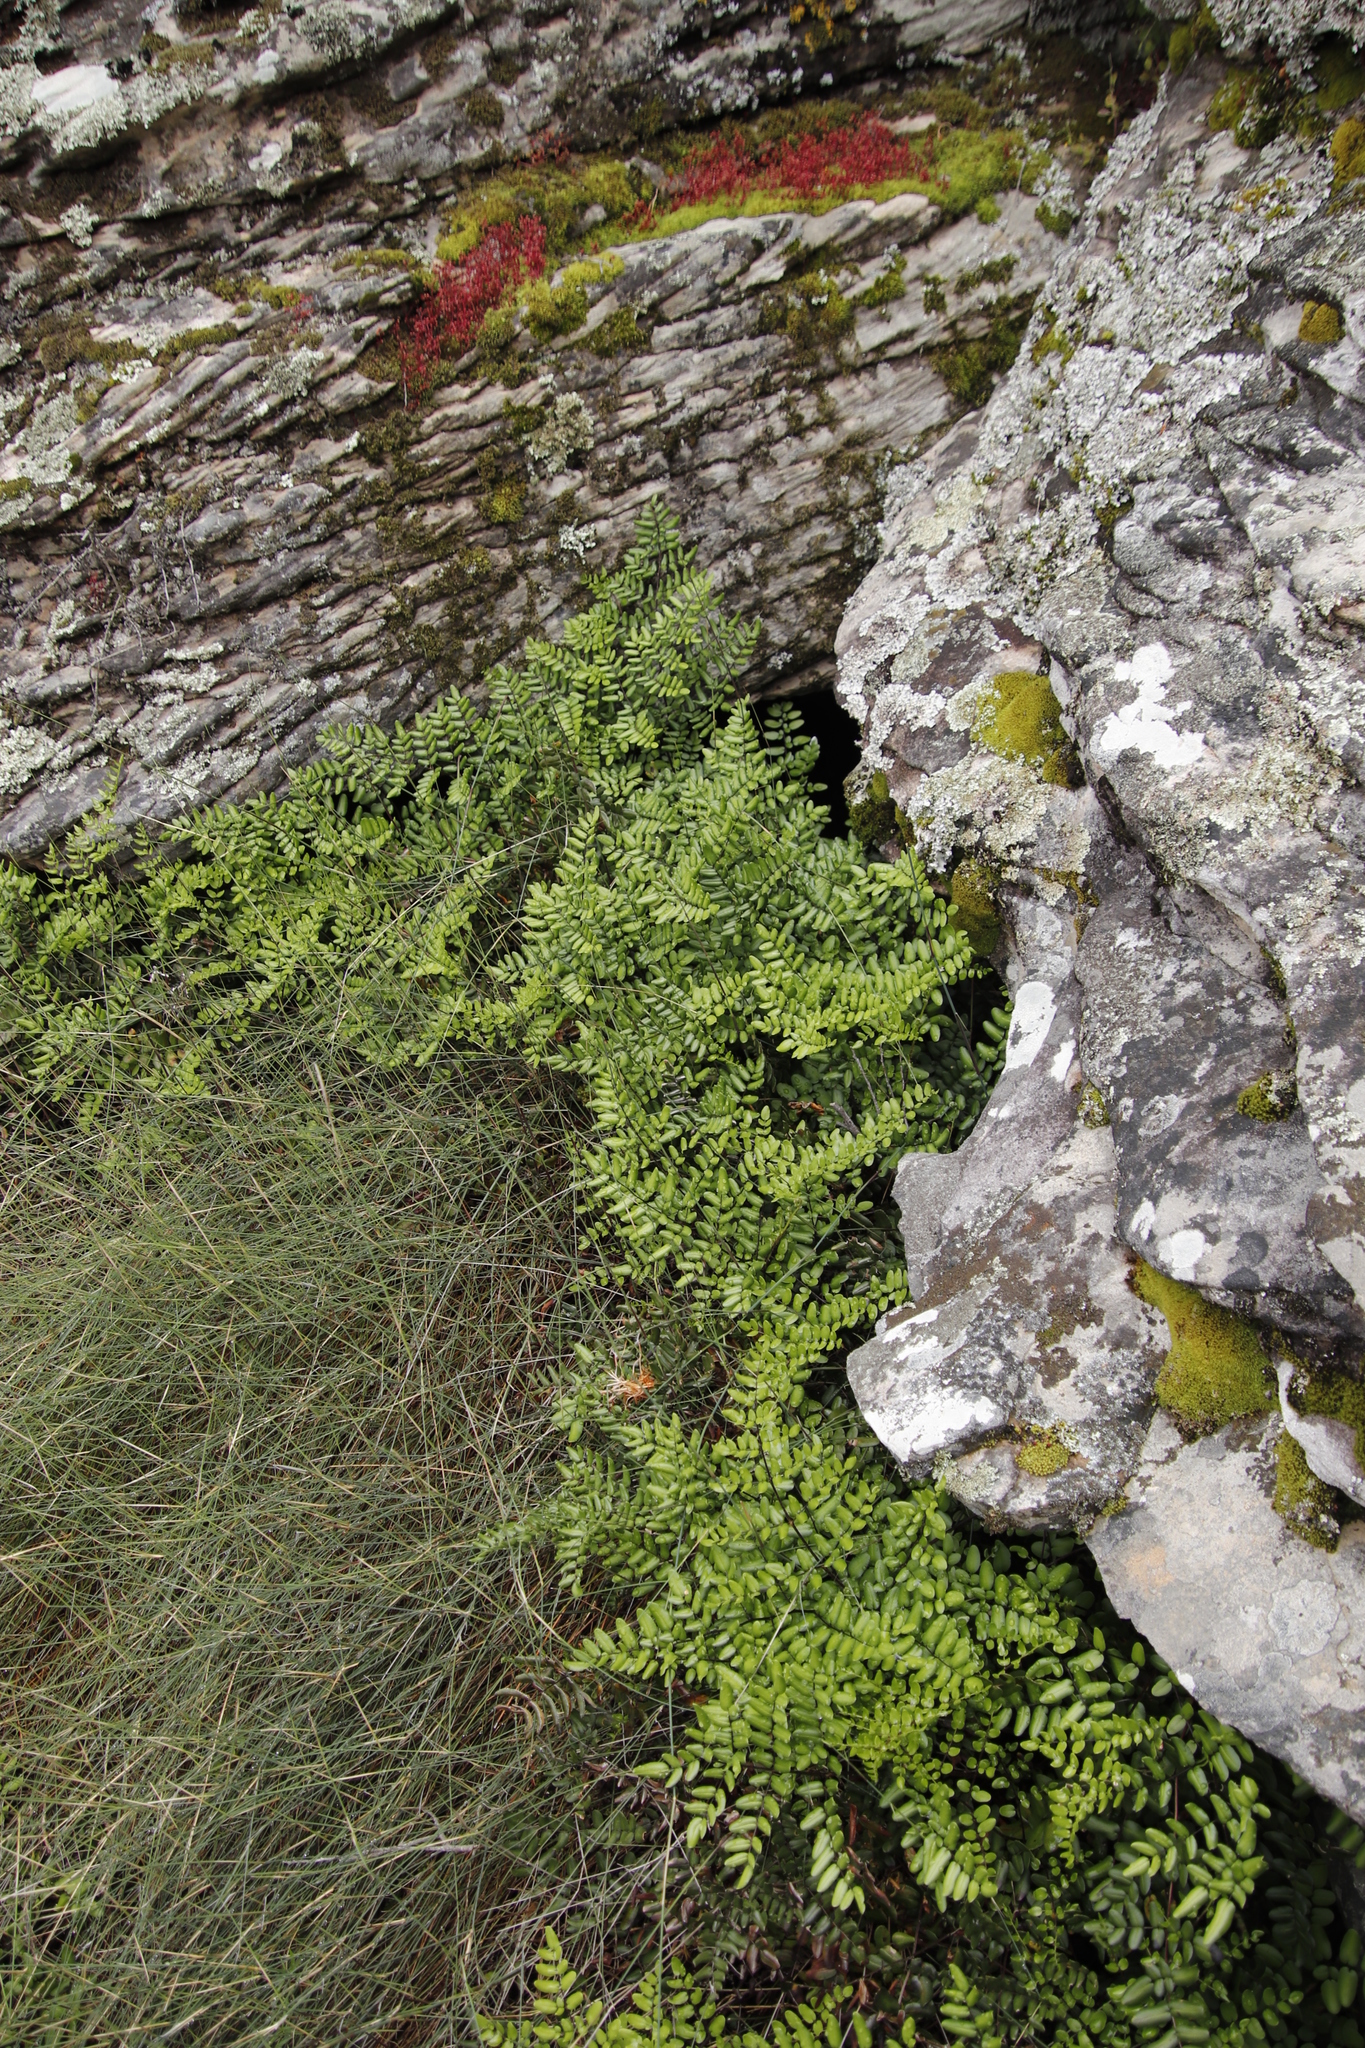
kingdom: Plantae
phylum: Tracheophyta
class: Polypodiopsida
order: Polypodiales
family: Pteridaceae
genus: Pellaea
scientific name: Pellaea pteroides
